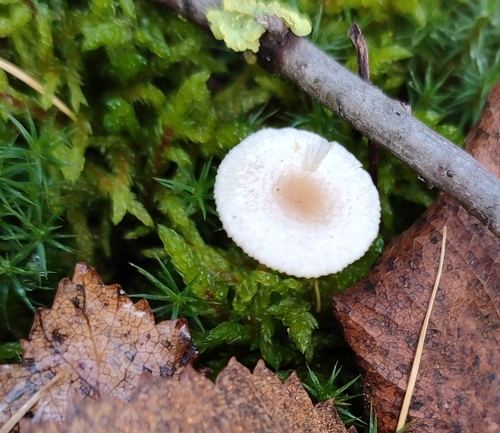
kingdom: Fungi
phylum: Basidiomycota
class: Agaricomycetes
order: Agaricales
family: Tricholomataceae
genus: Clitocybe
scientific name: Clitocybe
